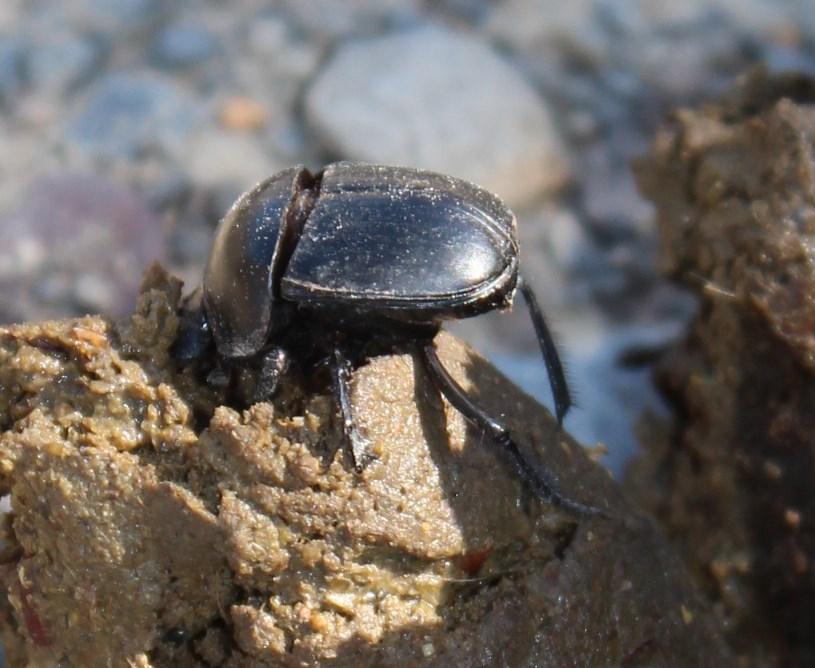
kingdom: Animalia
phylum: Arthropoda
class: Insecta
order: Coleoptera
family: Scarabaeidae
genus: Scarabaeus
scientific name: Scarabaeus convexus
